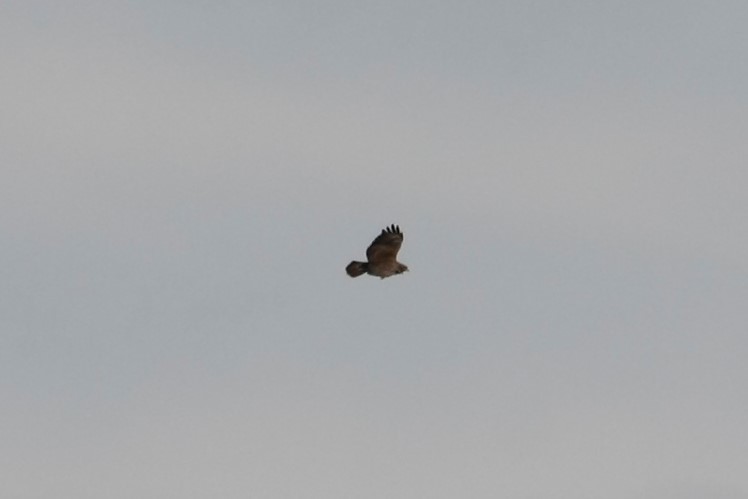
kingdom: Animalia
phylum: Chordata
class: Aves
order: Accipitriformes
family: Accipitridae
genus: Buteo
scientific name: Buteo buteo
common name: Common buzzard
